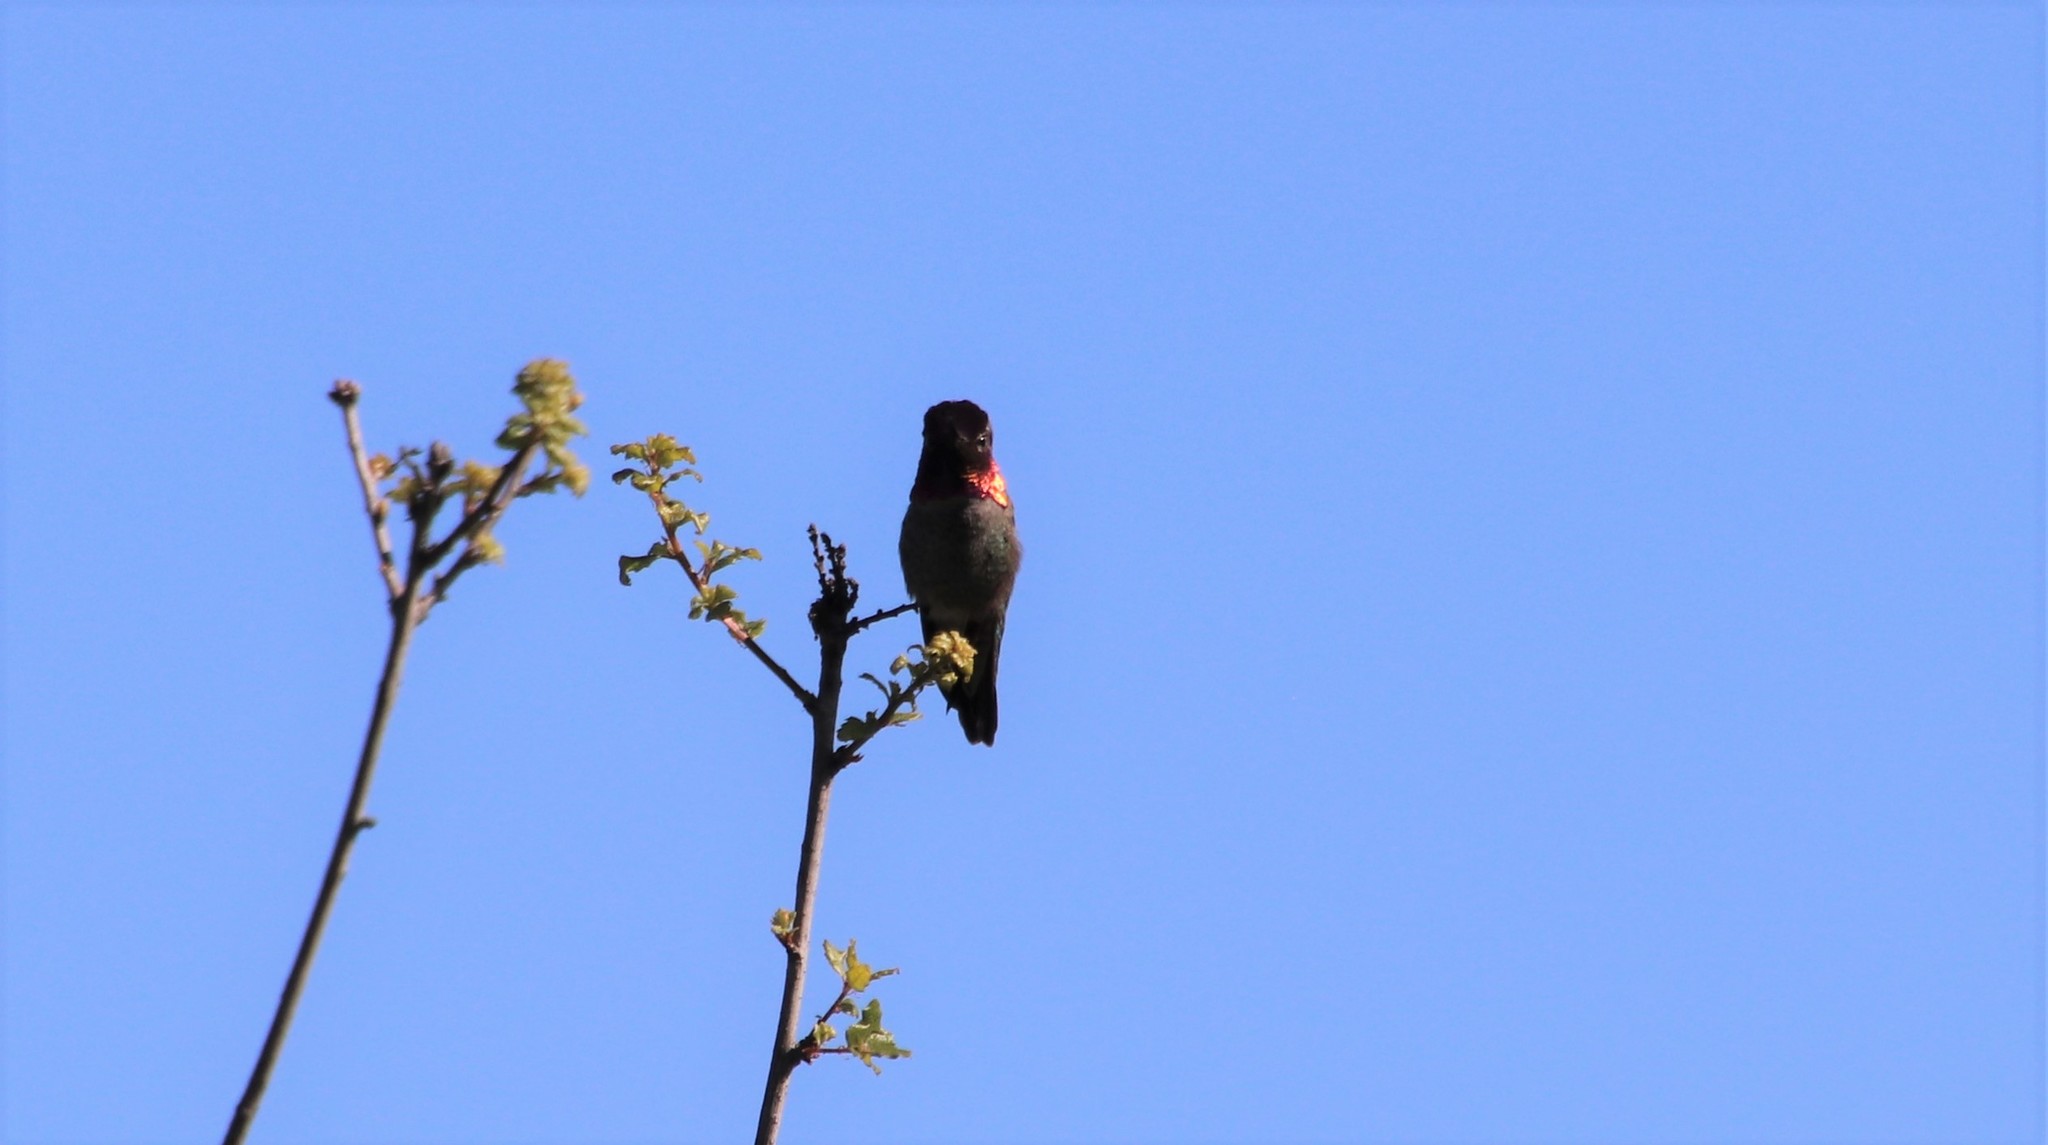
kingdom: Animalia
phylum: Chordata
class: Aves
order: Apodiformes
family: Trochilidae
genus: Calypte
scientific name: Calypte anna
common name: Anna's hummingbird
